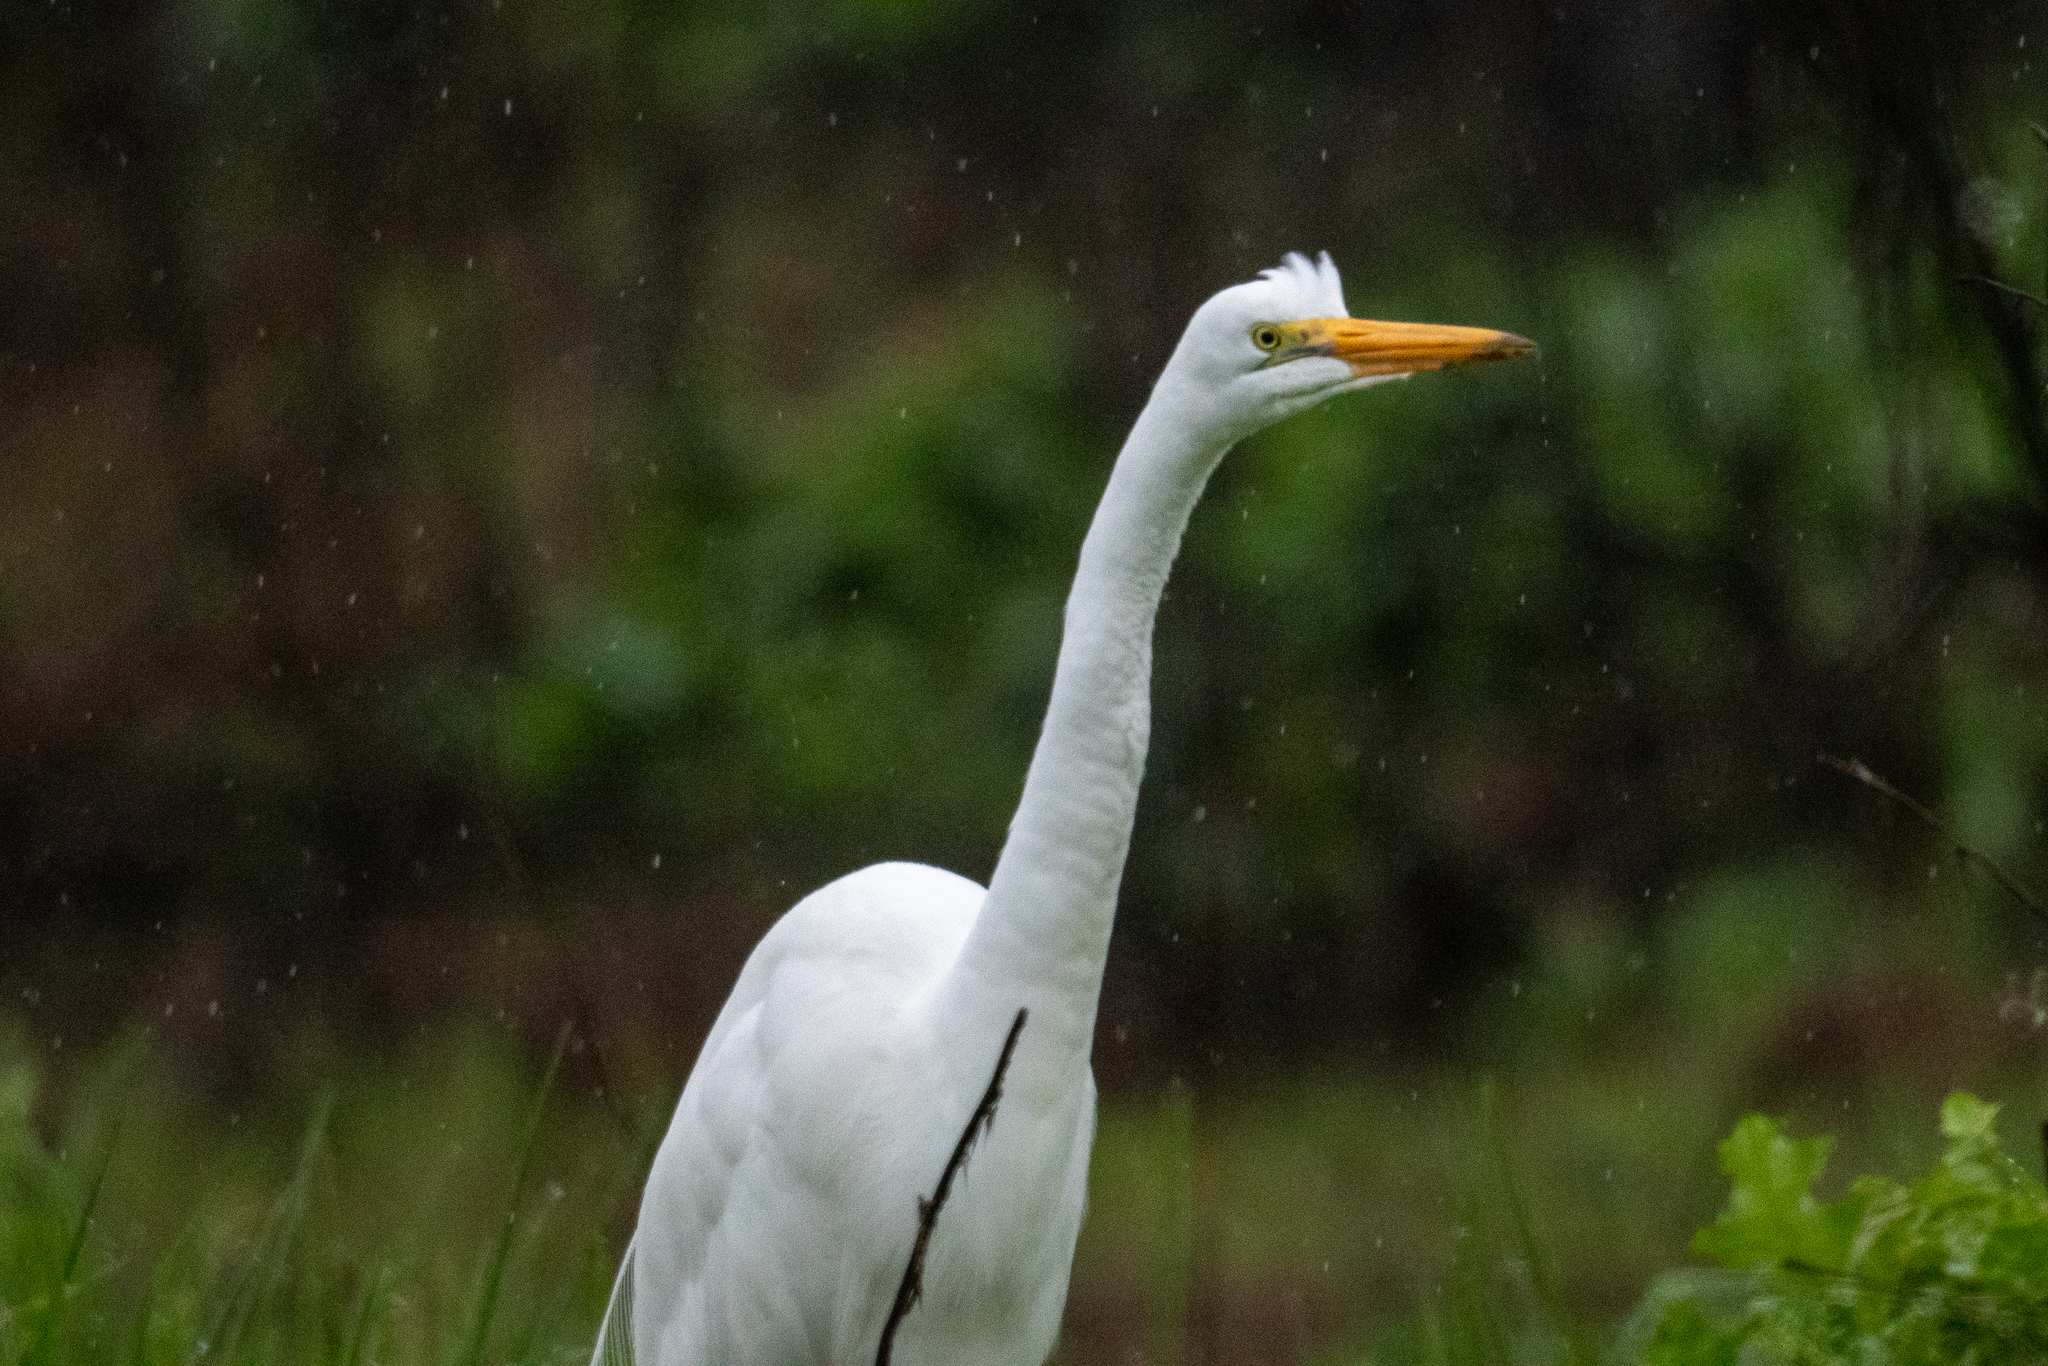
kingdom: Animalia
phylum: Chordata
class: Aves
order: Pelecaniformes
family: Ardeidae
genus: Ardea
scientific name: Ardea alba
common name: Great egret
